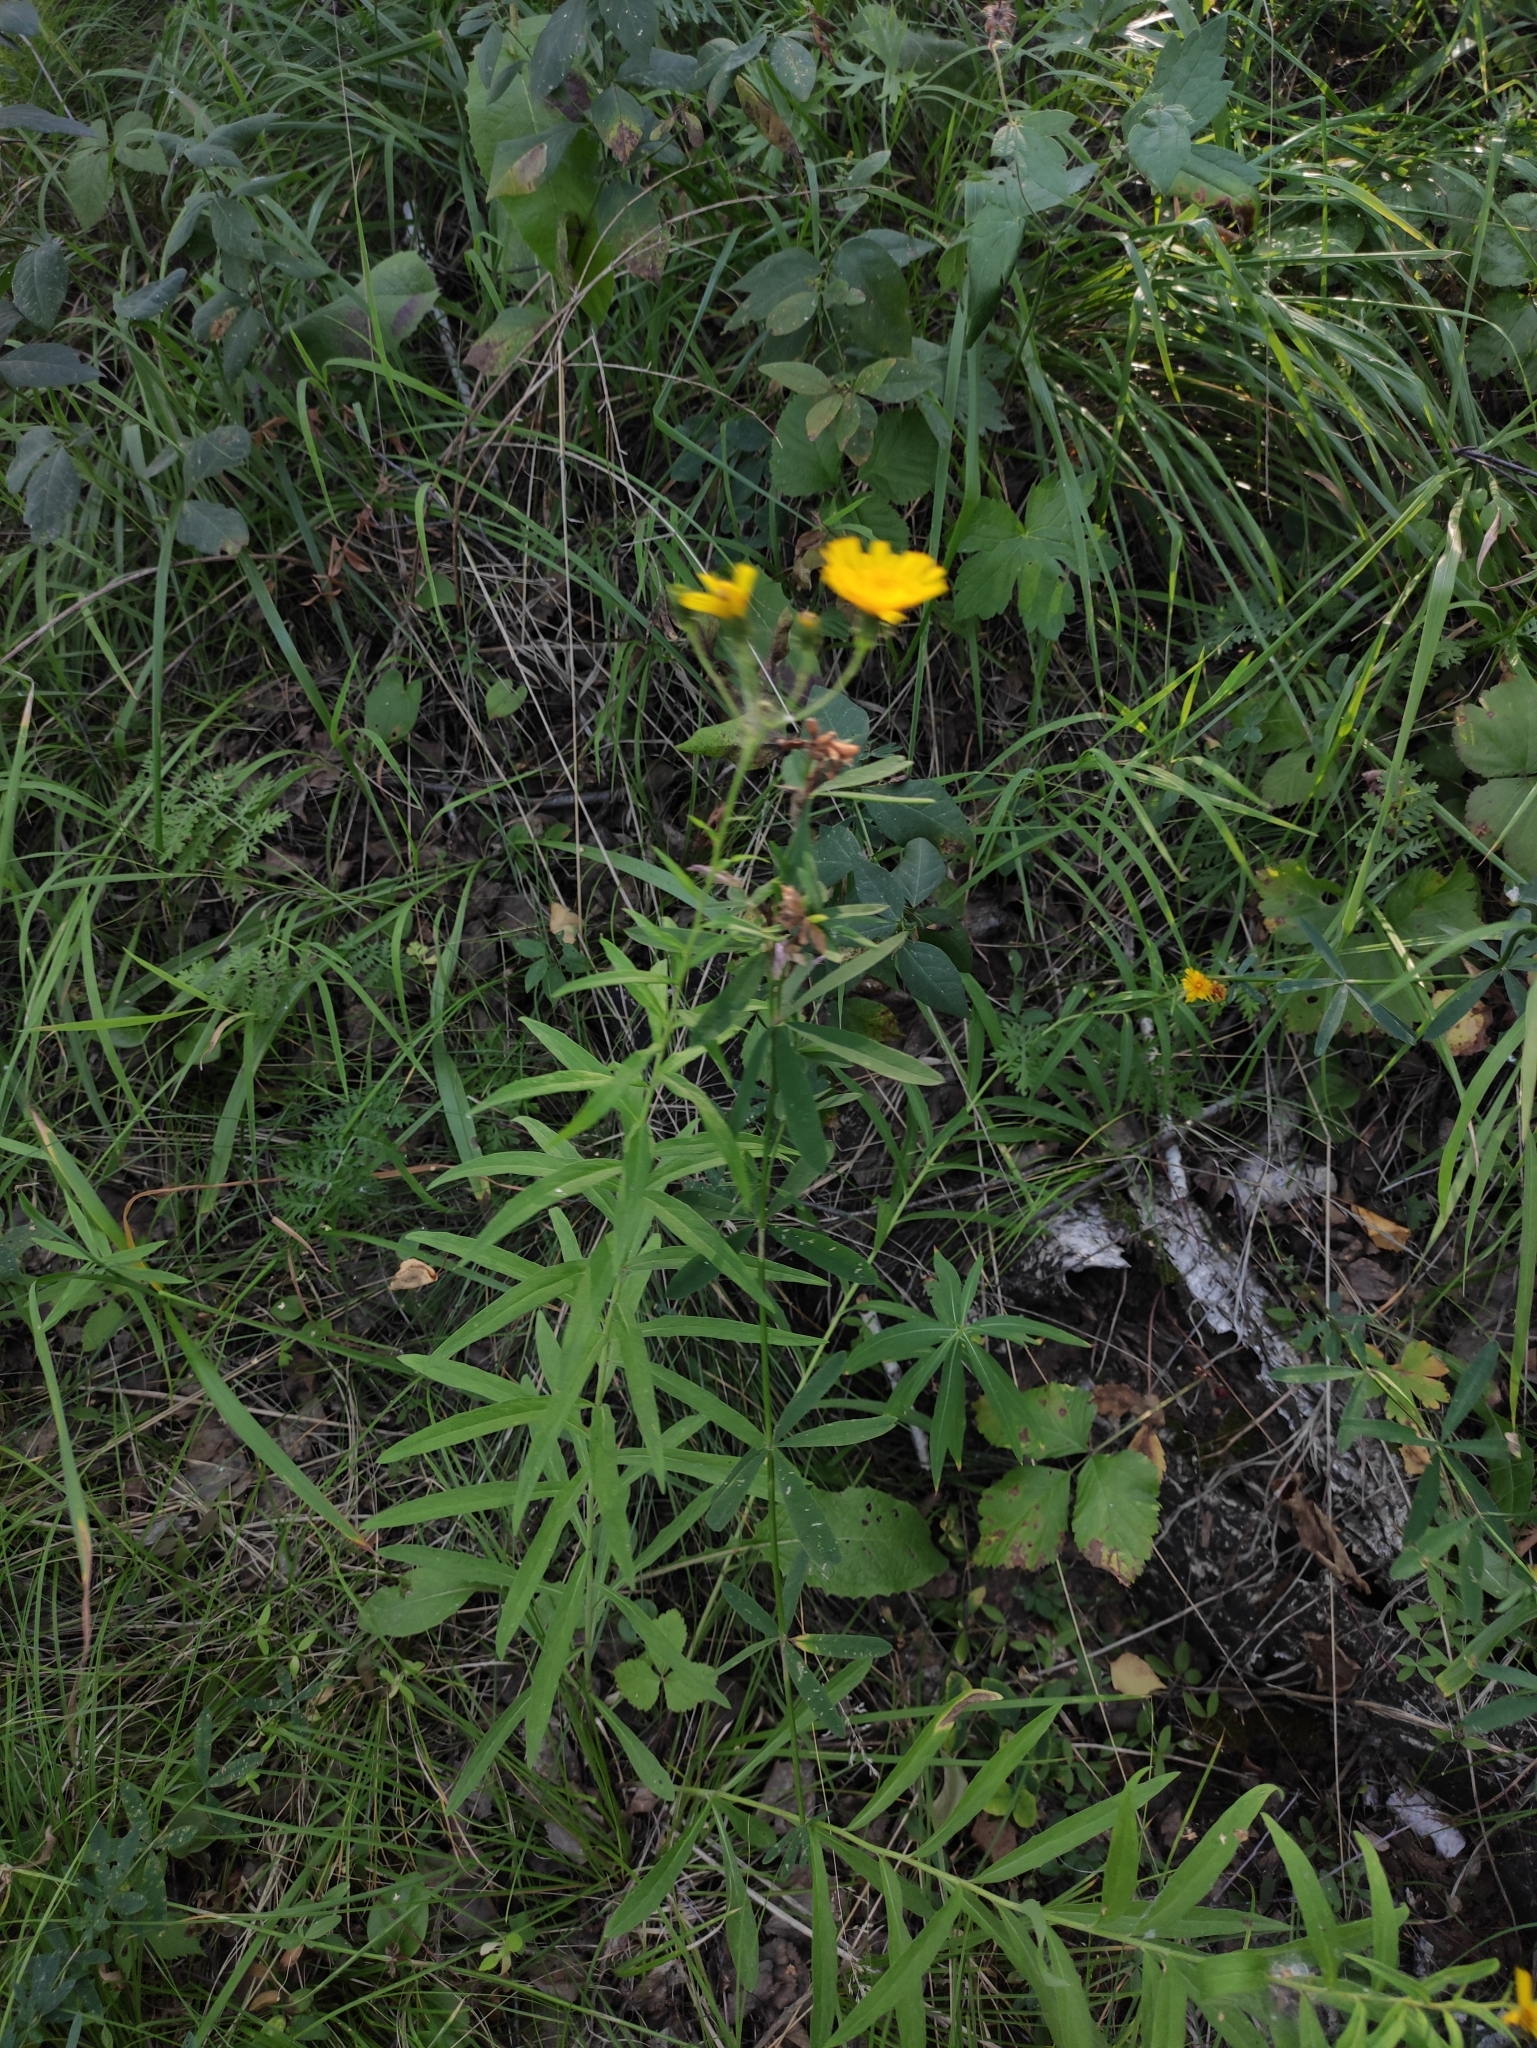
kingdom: Plantae
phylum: Tracheophyta
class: Magnoliopsida
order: Asterales
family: Asteraceae
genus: Hieracium
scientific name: Hieracium umbellatum
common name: Northern hawkweed
